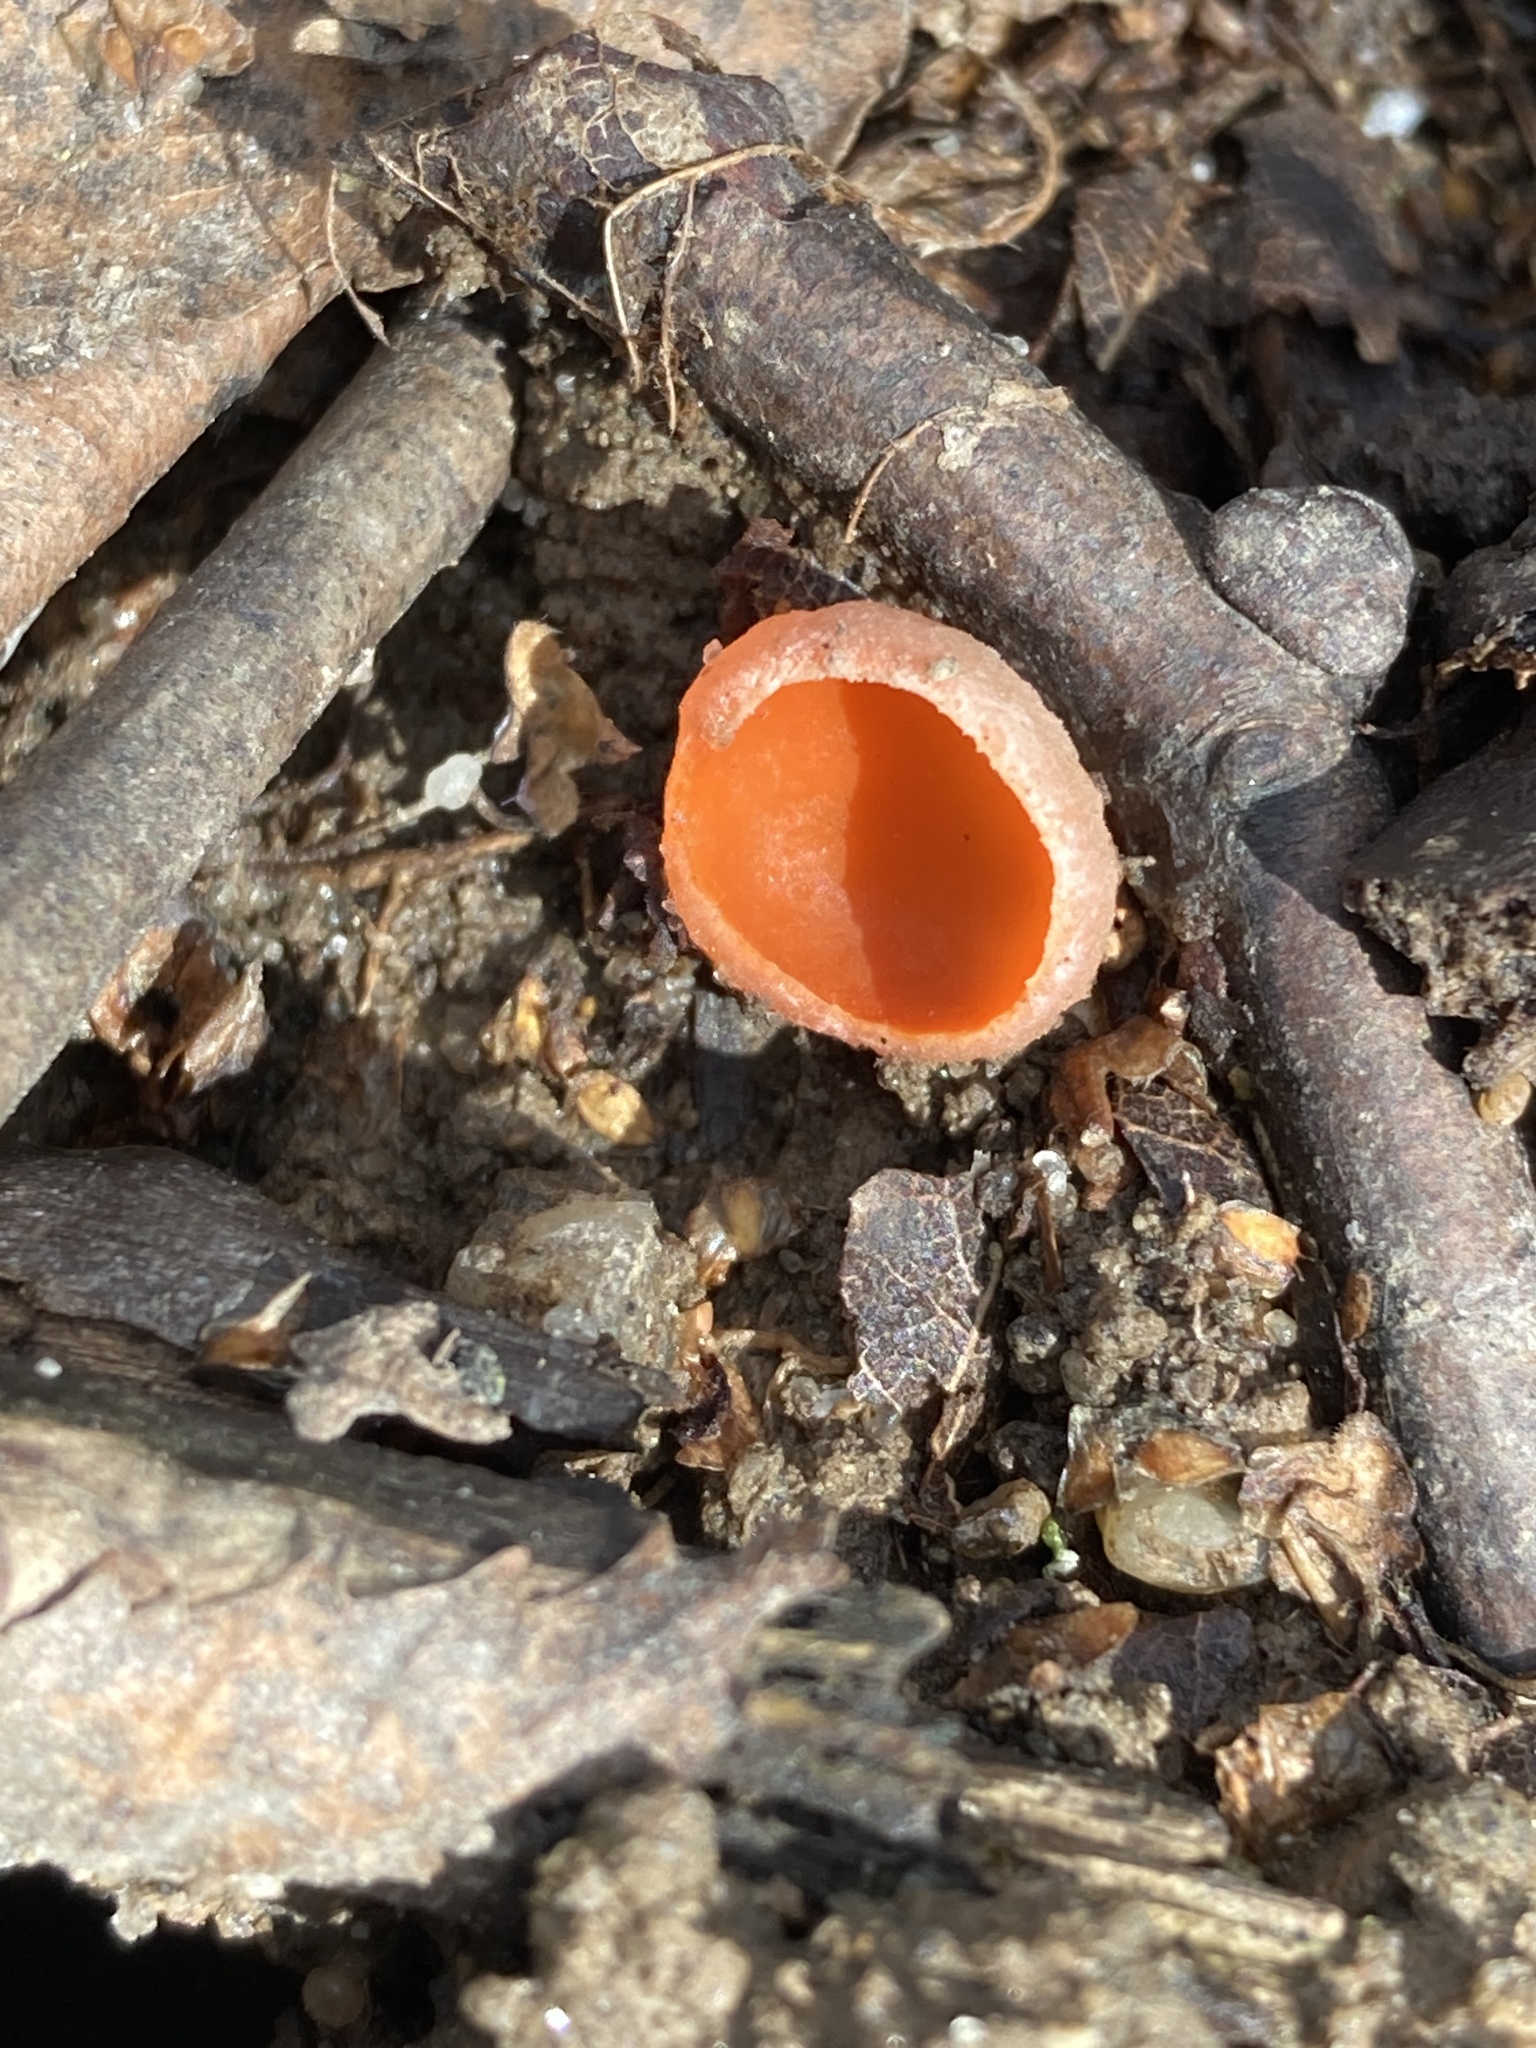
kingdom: Fungi
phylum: Ascomycota
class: Pezizomycetes
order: Pezizales
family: Sarcoscyphaceae
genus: Sarcoscypha
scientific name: Sarcoscypha austriaca
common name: Scarlet elfcup
